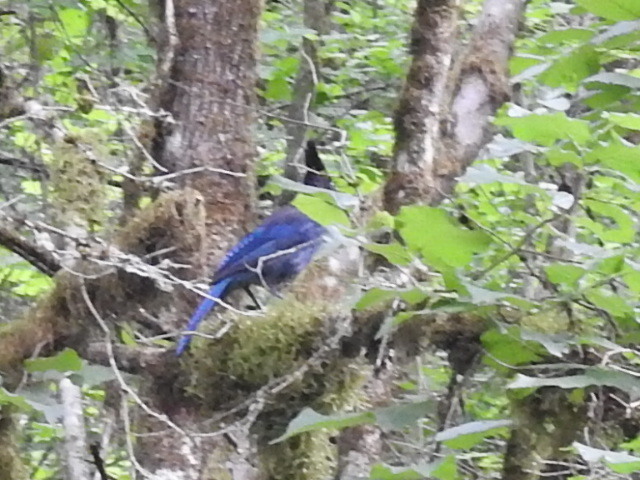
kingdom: Animalia
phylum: Chordata
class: Aves
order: Passeriformes
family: Corvidae
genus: Cyanocitta
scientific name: Cyanocitta stelleri
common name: Steller's jay
